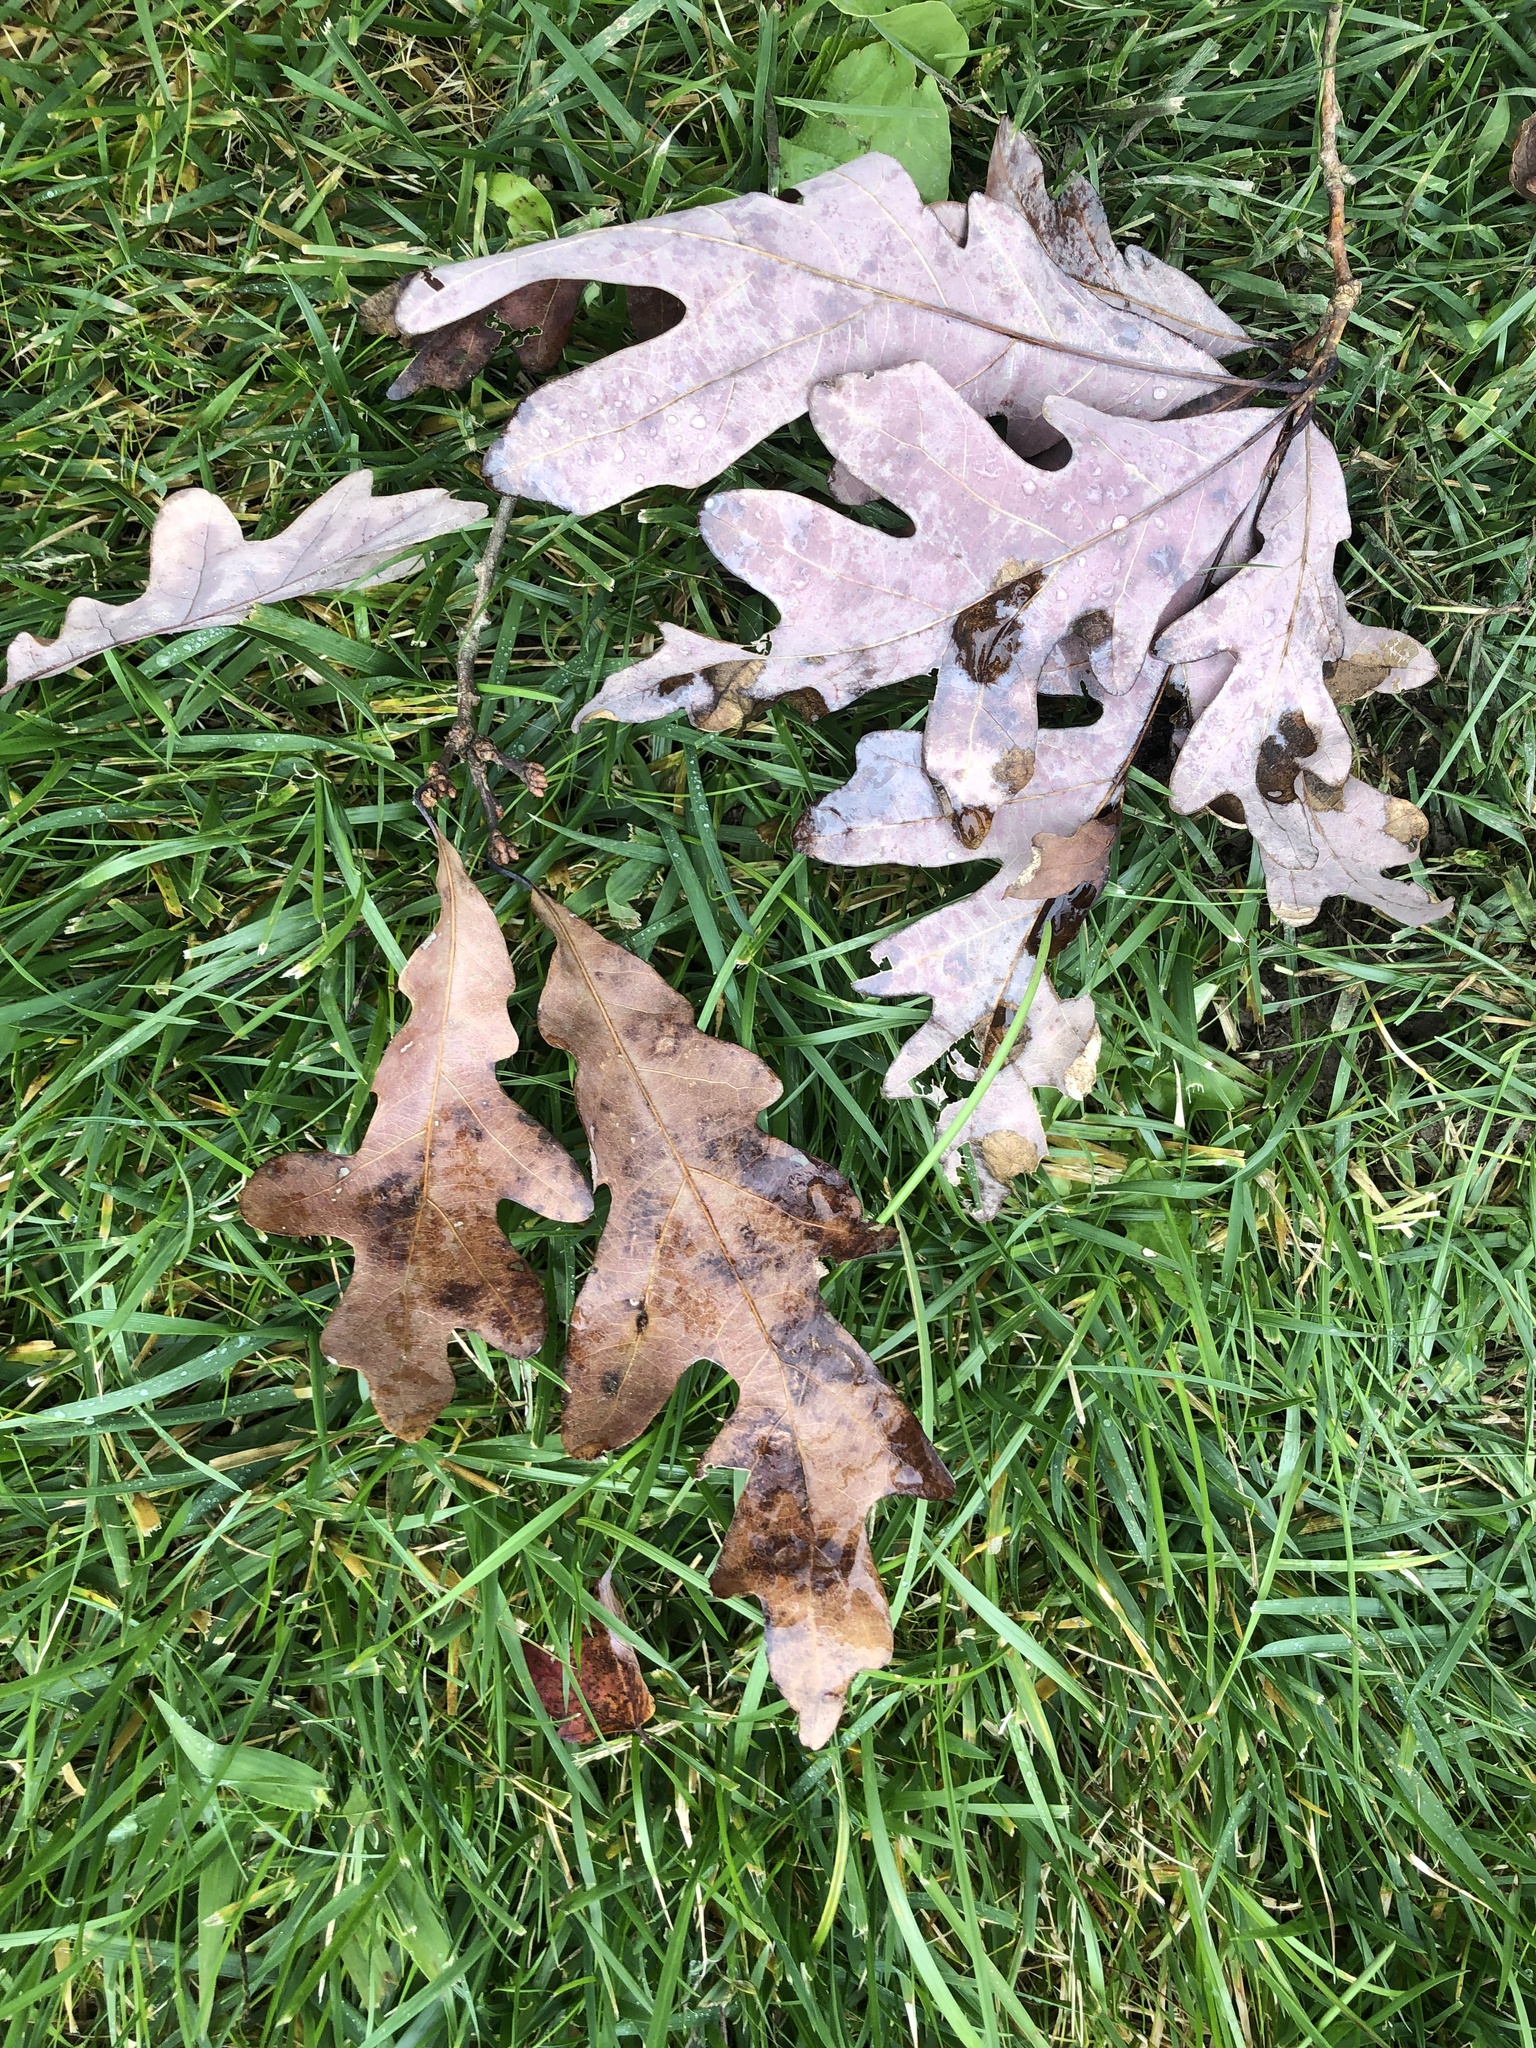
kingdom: Plantae
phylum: Tracheophyta
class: Magnoliopsida
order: Fagales
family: Fagaceae
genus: Quercus
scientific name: Quercus alba
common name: White oak
